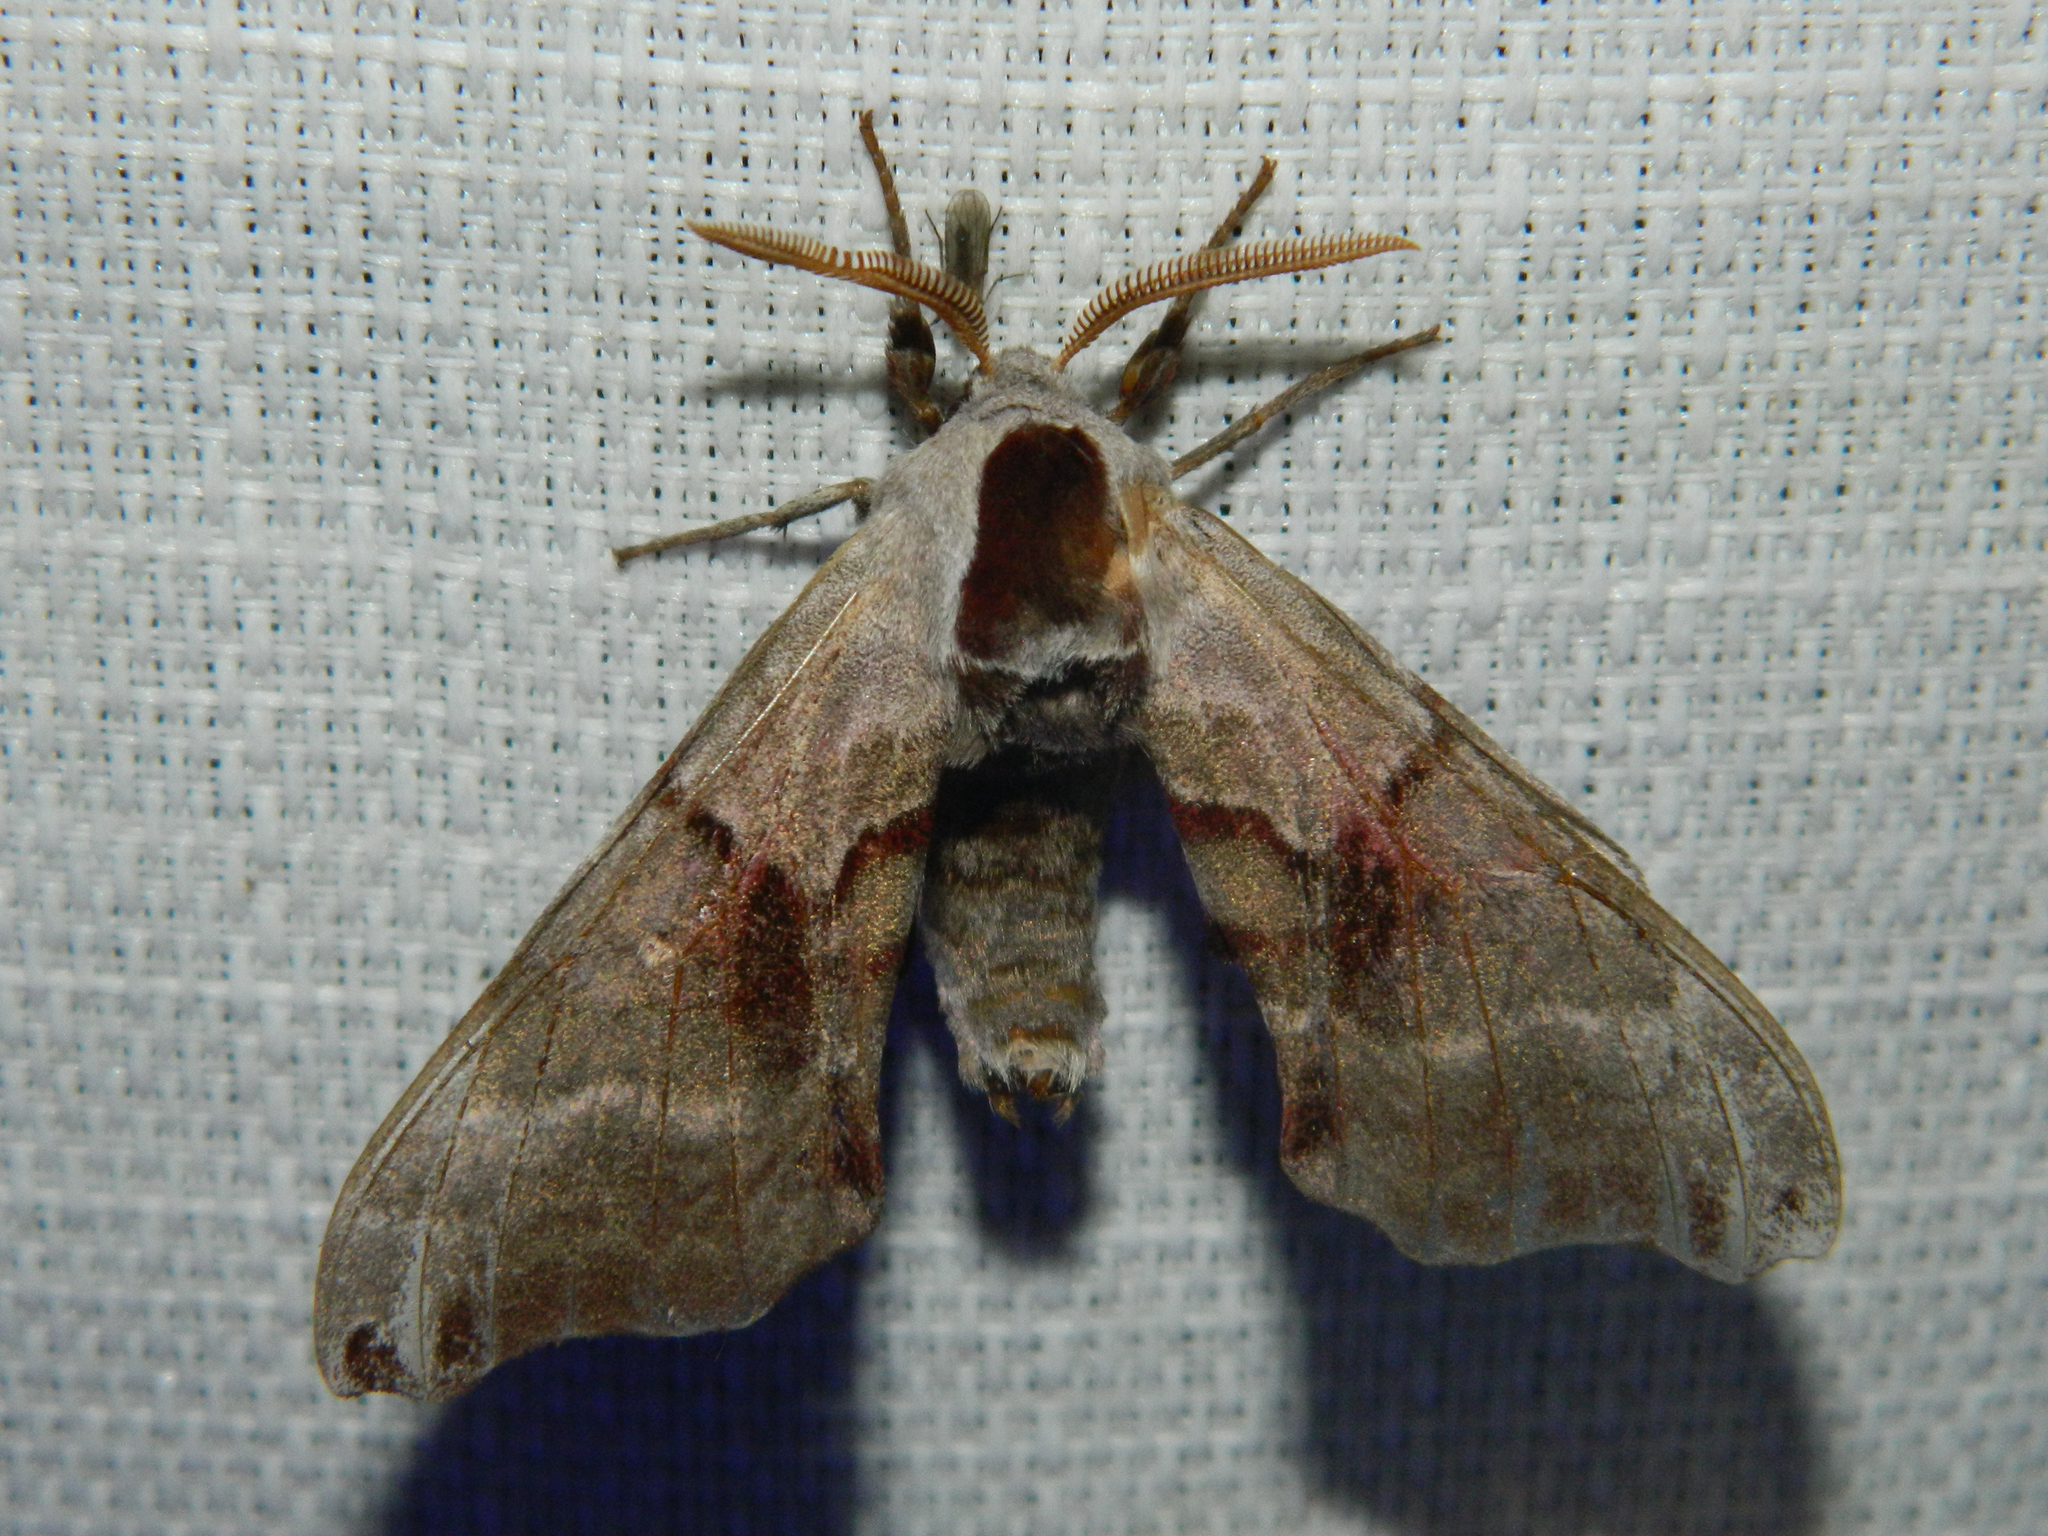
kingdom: Animalia
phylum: Arthropoda
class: Insecta
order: Lepidoptera
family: Sphingidae
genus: Smerinthus
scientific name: Smerinthus jamaicensis
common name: Twin spotted sphinx
